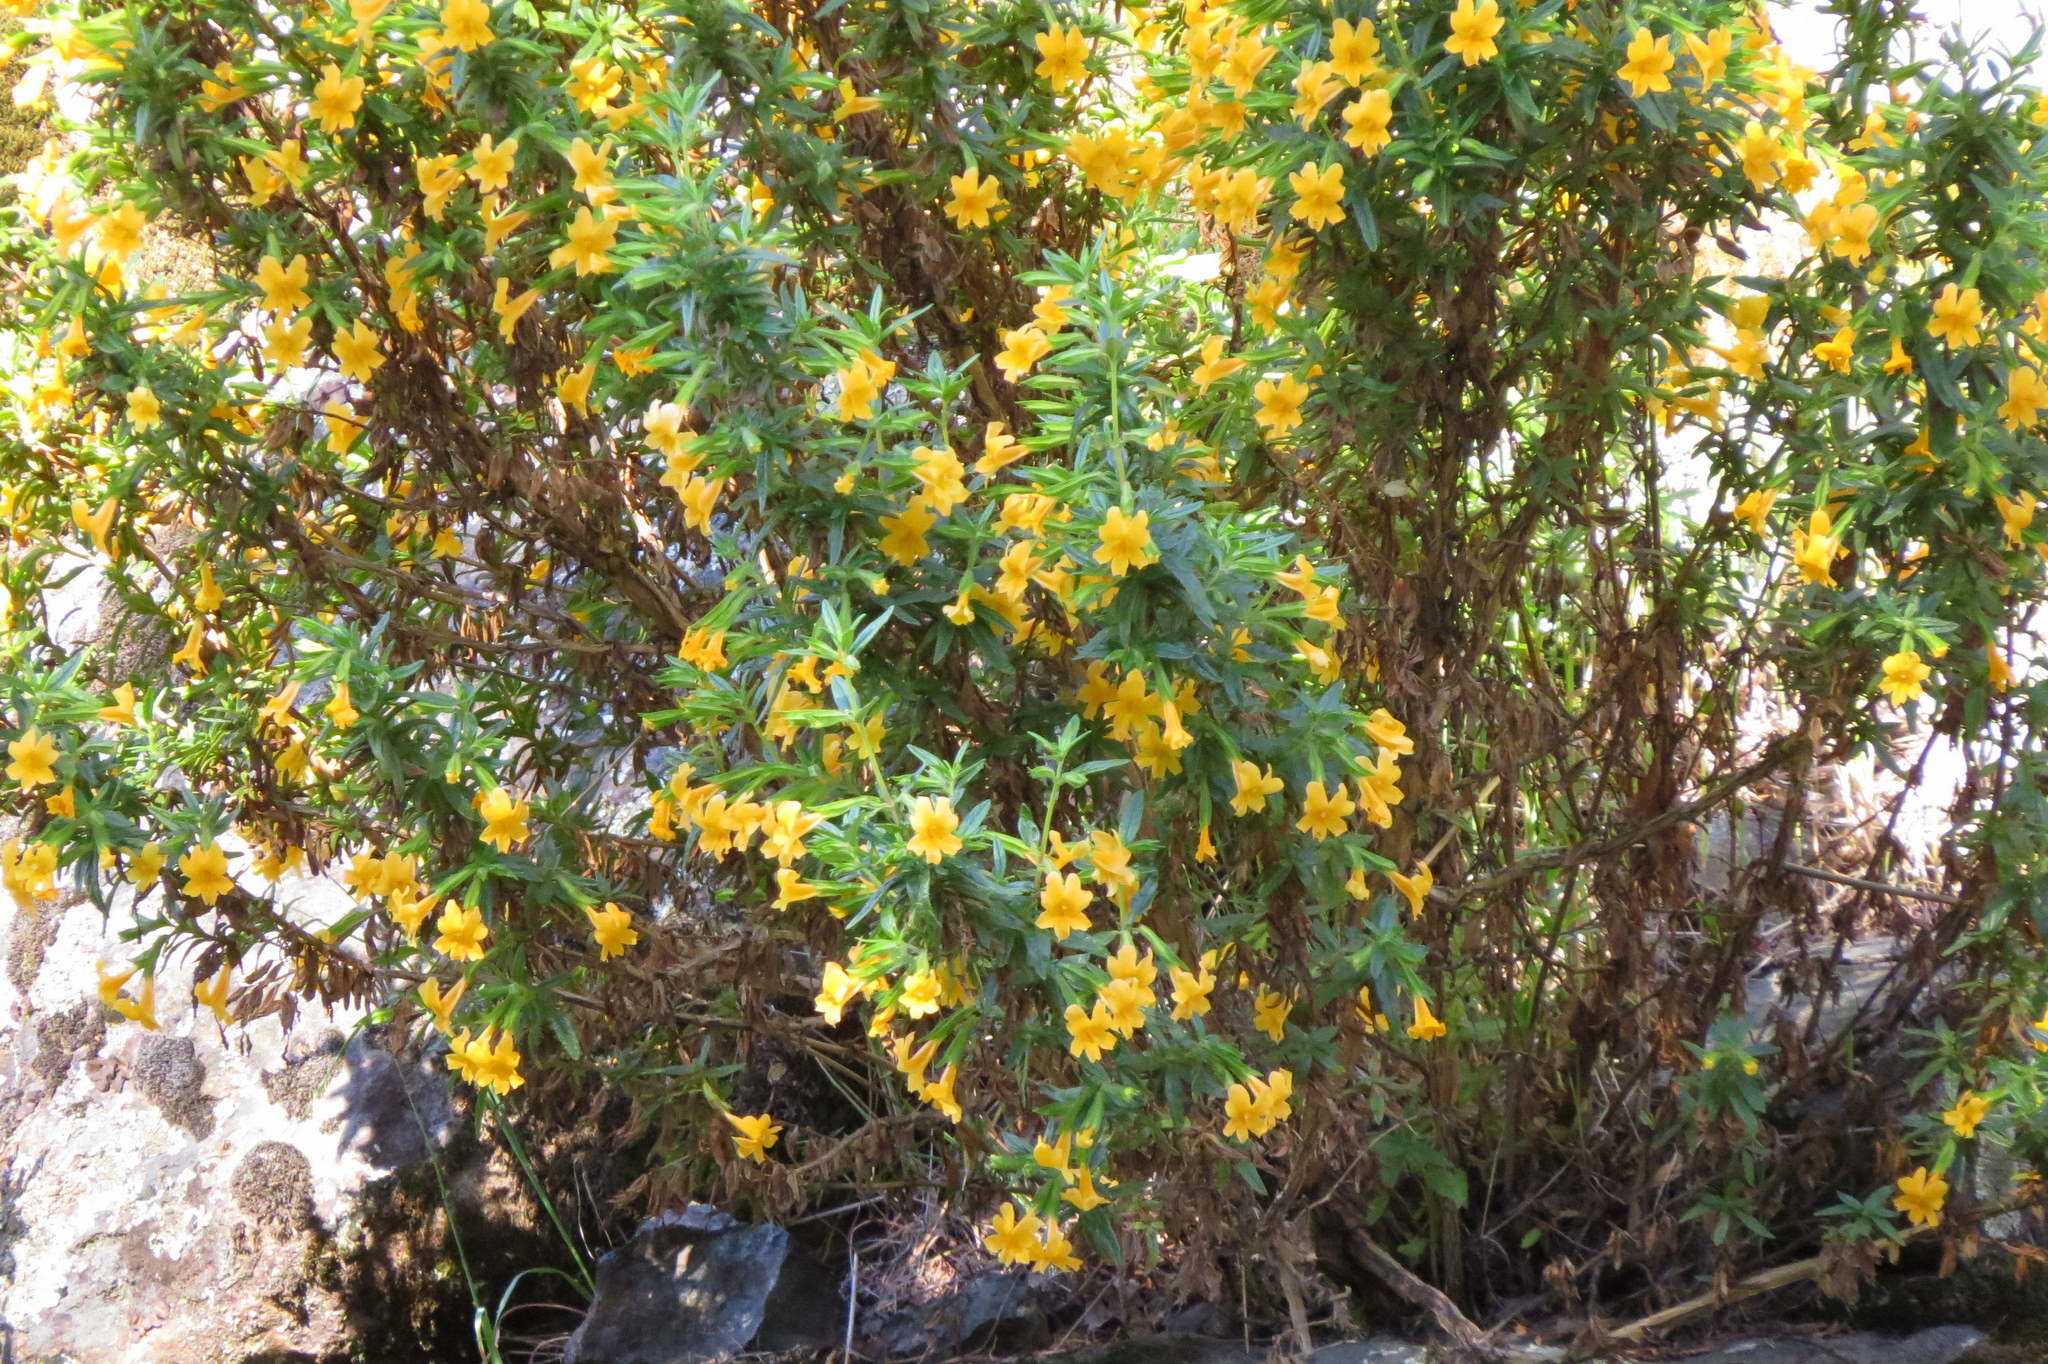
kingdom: Plantae
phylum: Tracheophyta
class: Magnoliopsida
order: Lamiales
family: Phrymaceae
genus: Diplacus
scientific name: Diplacus aurantiacus
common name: Bush monkey-flower
